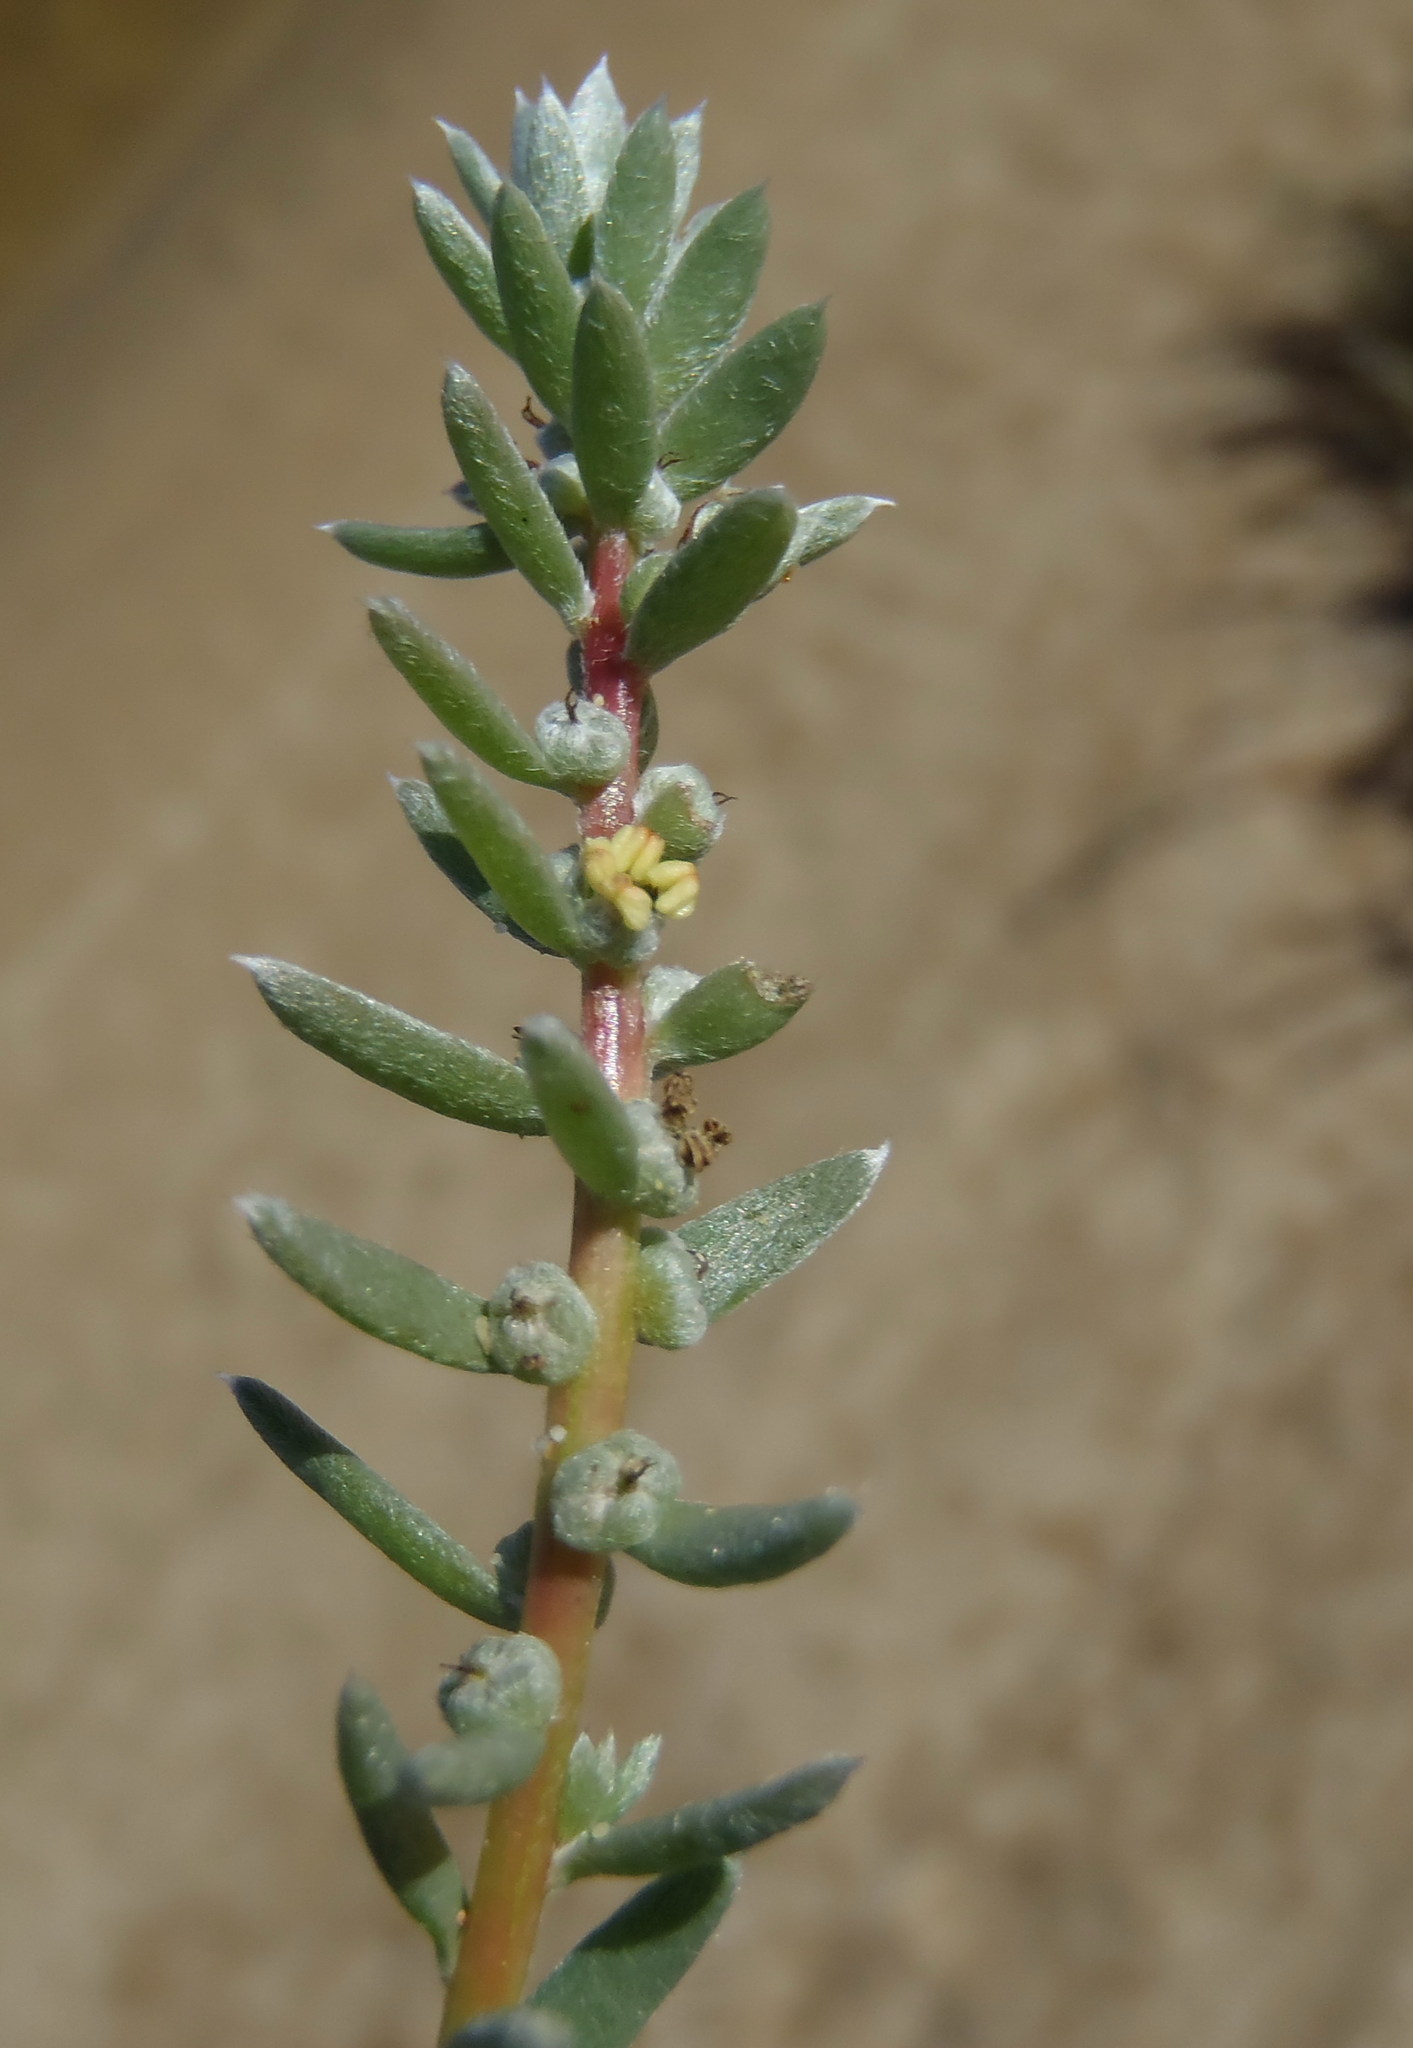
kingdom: Plantae
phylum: Tracheophyta
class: Magnoliopsida
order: Caryophyllales
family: Amaranthaceae
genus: Chenolea
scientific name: Chenolea diffusa
